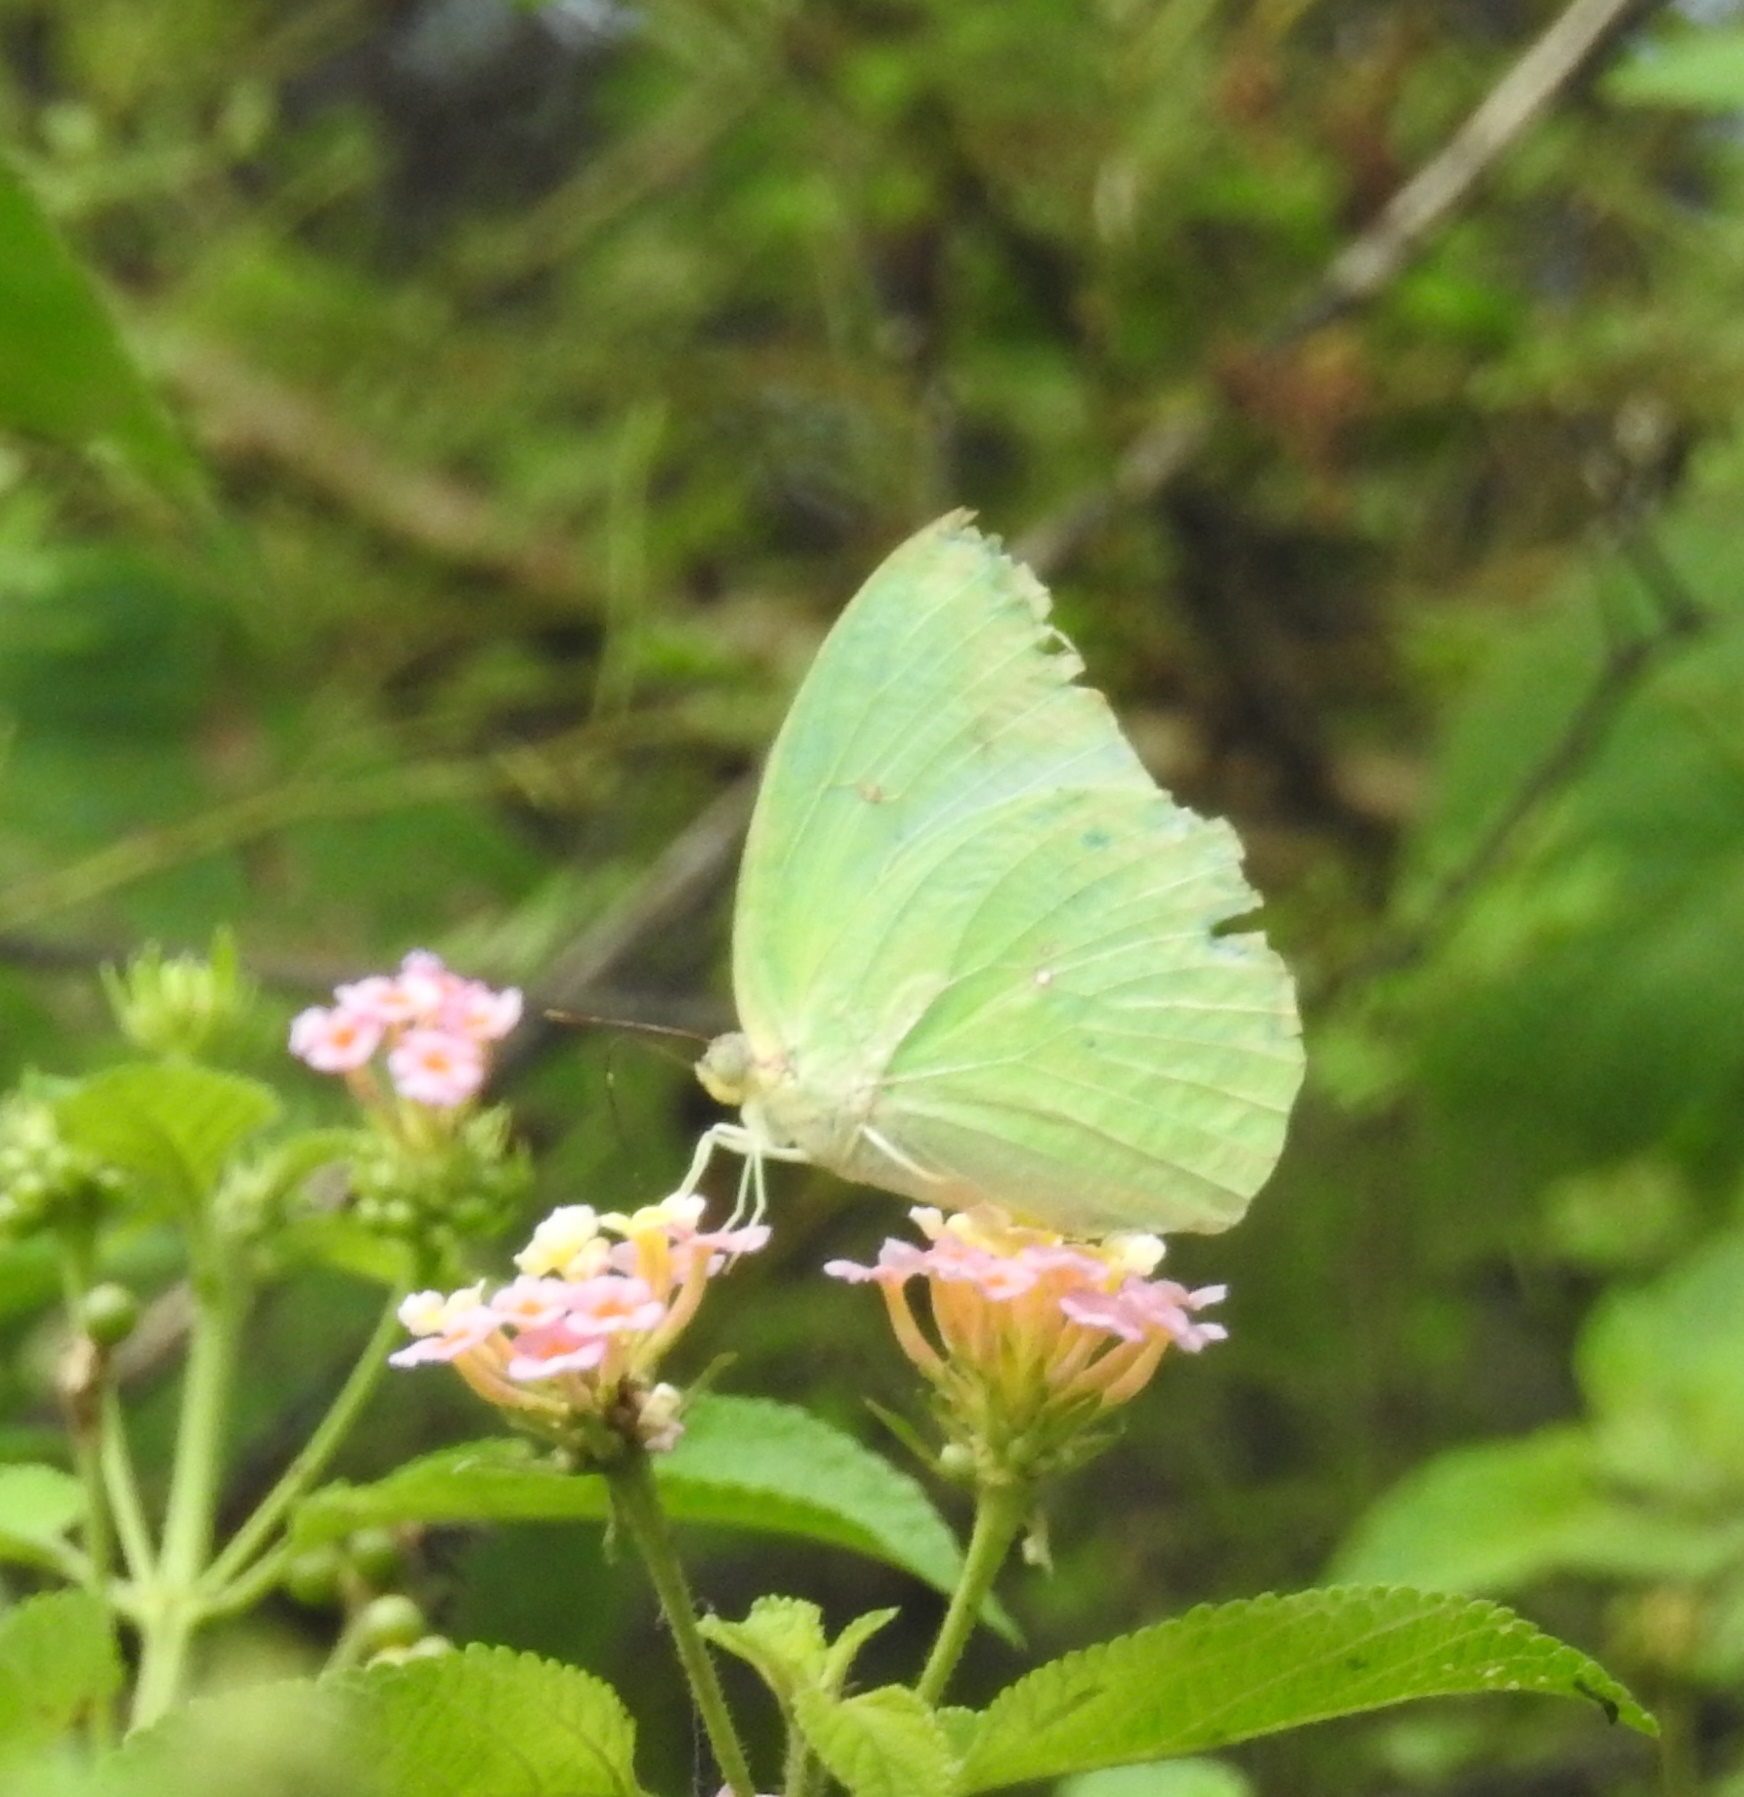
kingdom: Animalia
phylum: Arthropoda
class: Insecta
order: Lepidoptera
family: Pieridae
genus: Catopsilia
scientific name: Catopsilia pomona
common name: Common emigrant
